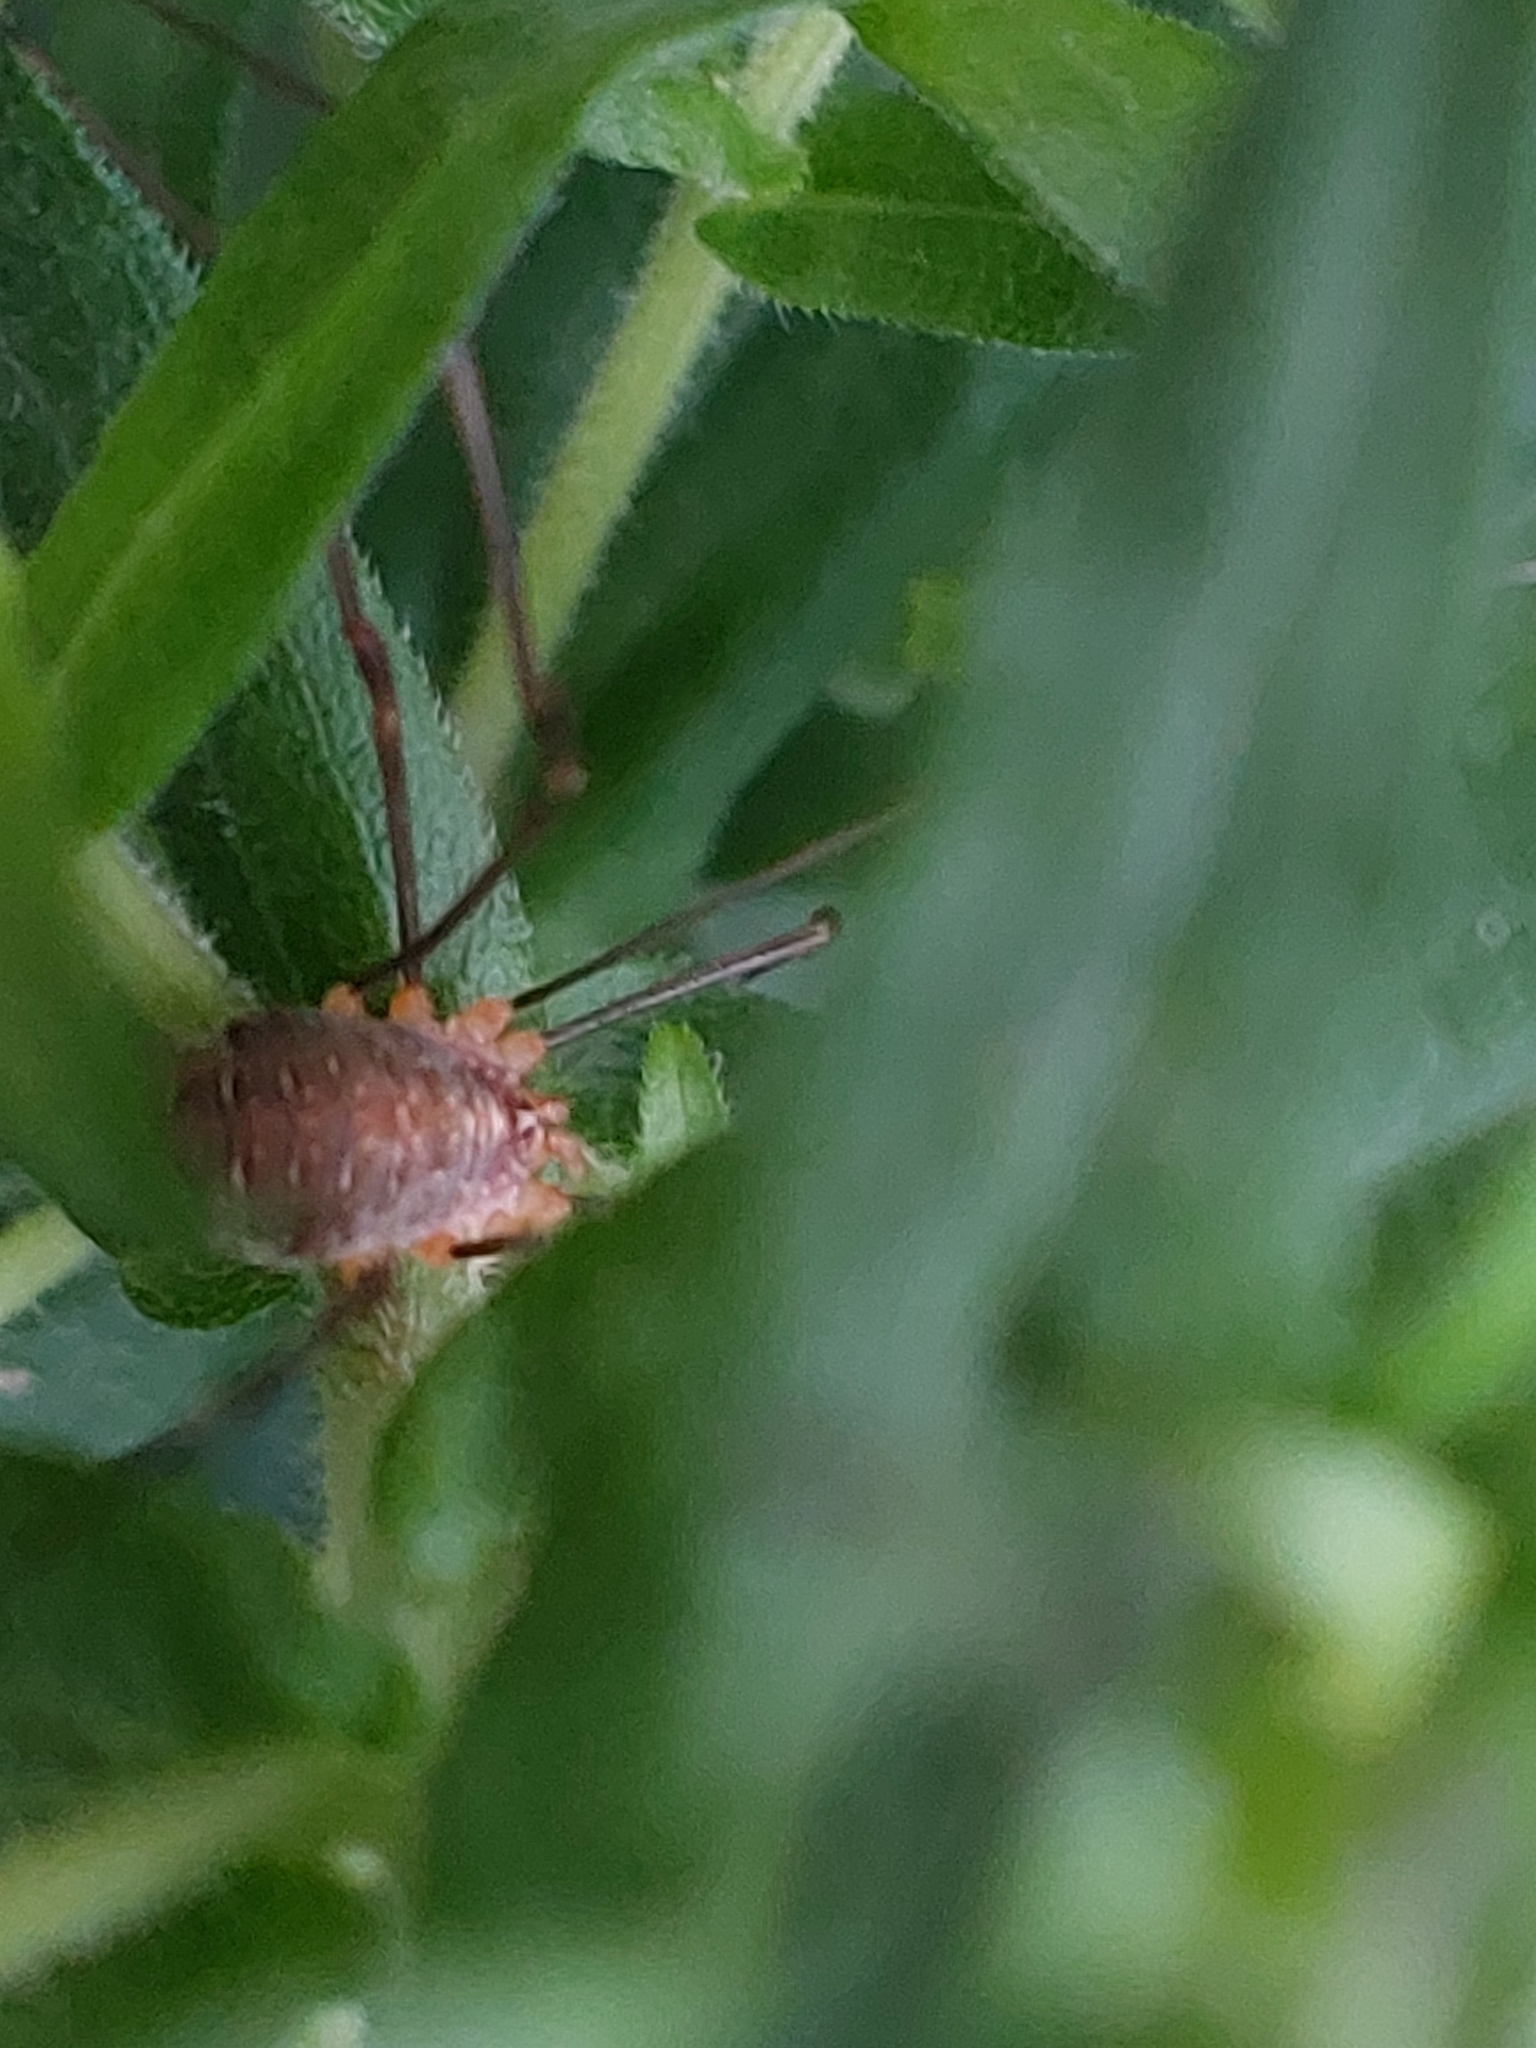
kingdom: Animalia
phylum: Arthropoda
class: Arachnida
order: Opiliones
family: Phalangiidae
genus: Opilio
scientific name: Opilio canestrinii
